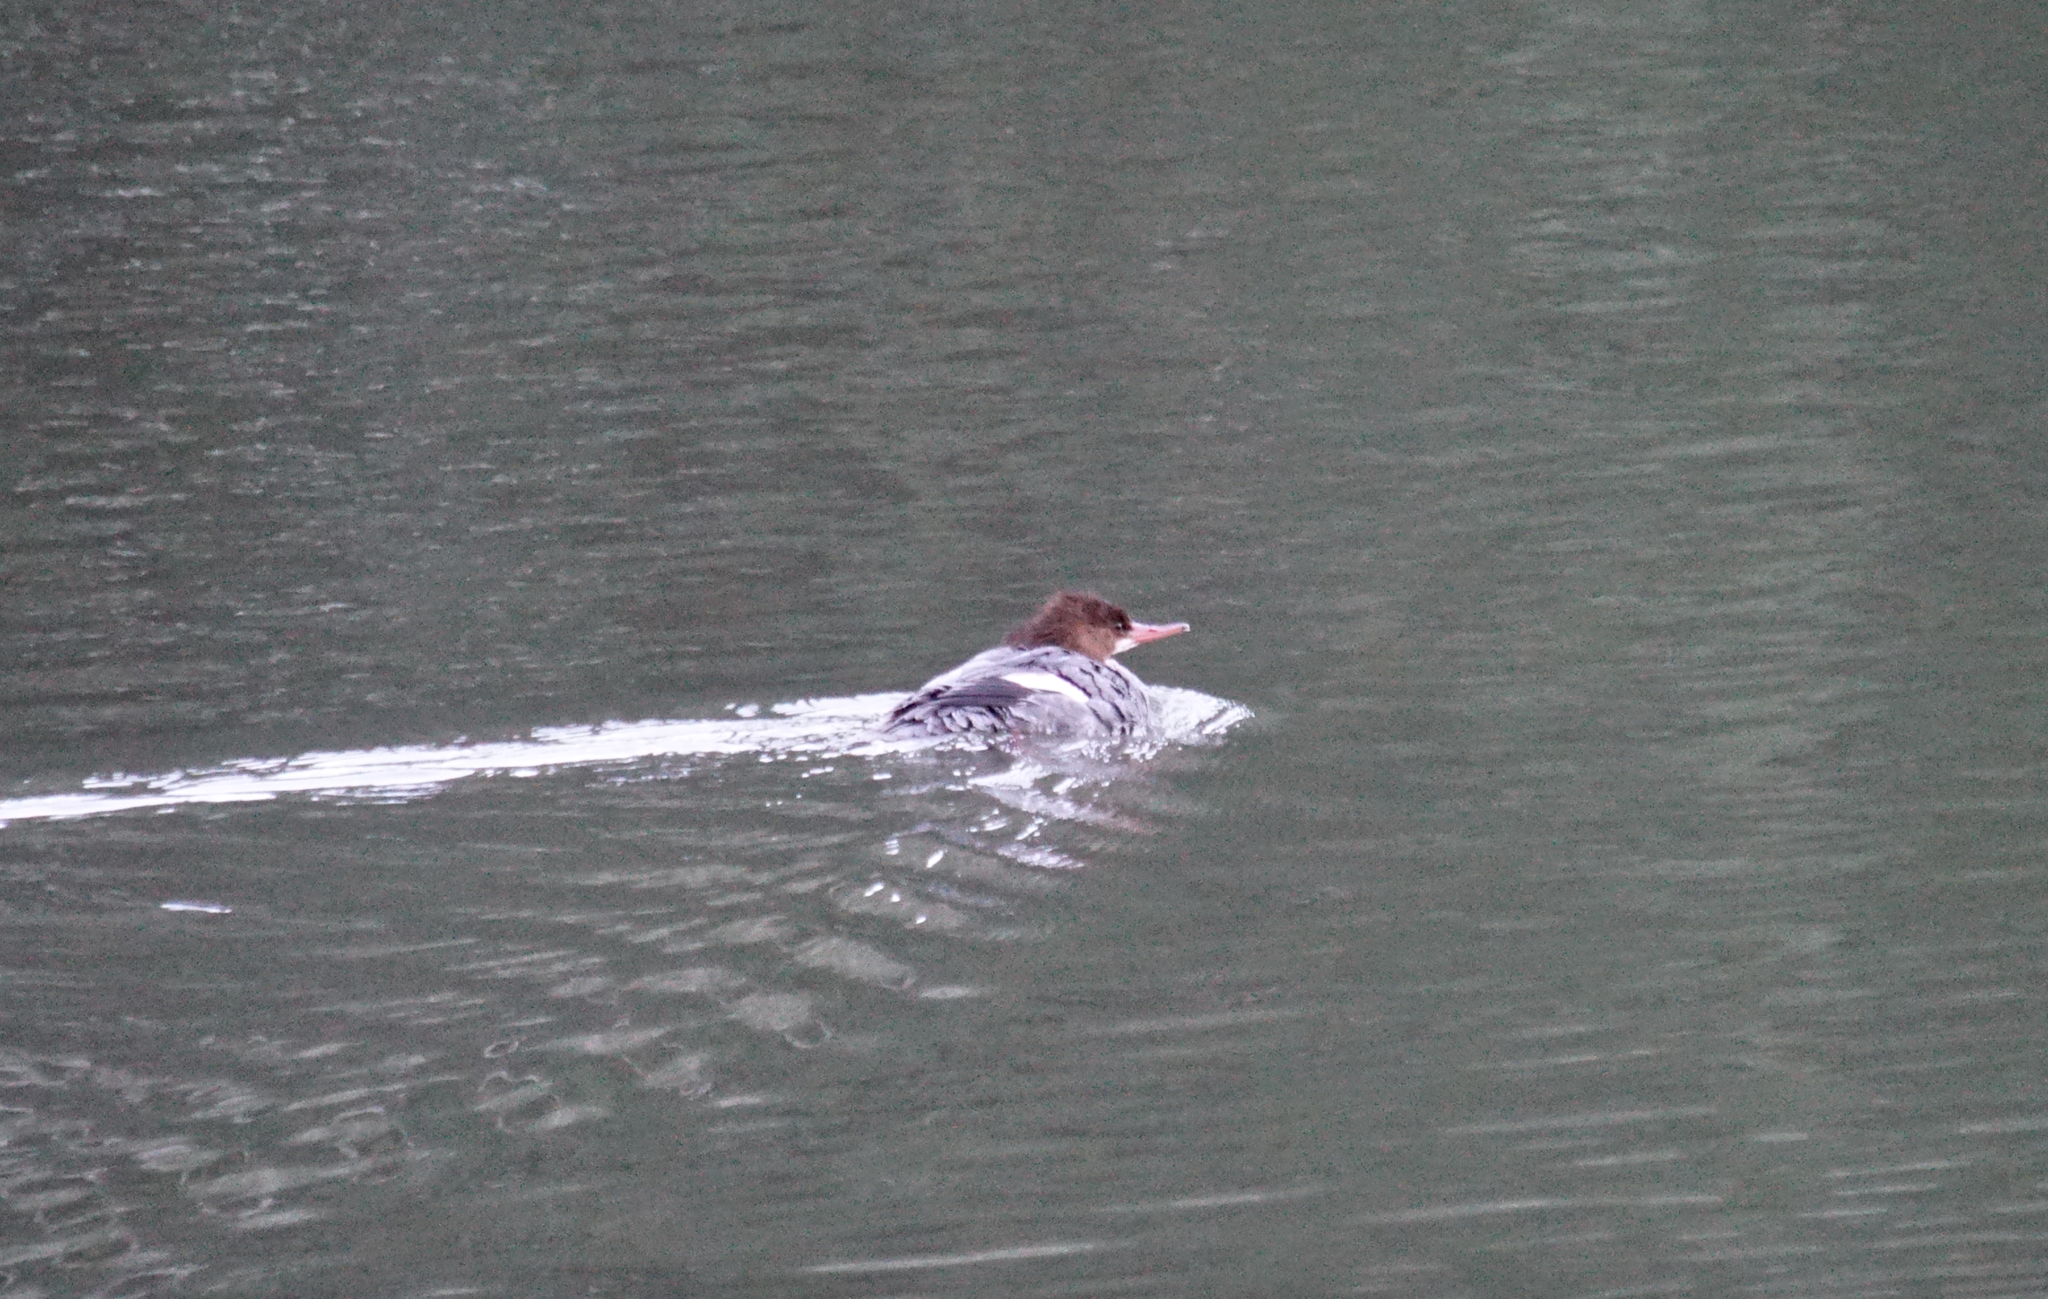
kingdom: Animalia
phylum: Chordata
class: Aves
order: Anseriformes
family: Anatidae
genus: Mergus
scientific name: Mergus merganser
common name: Common merganser
